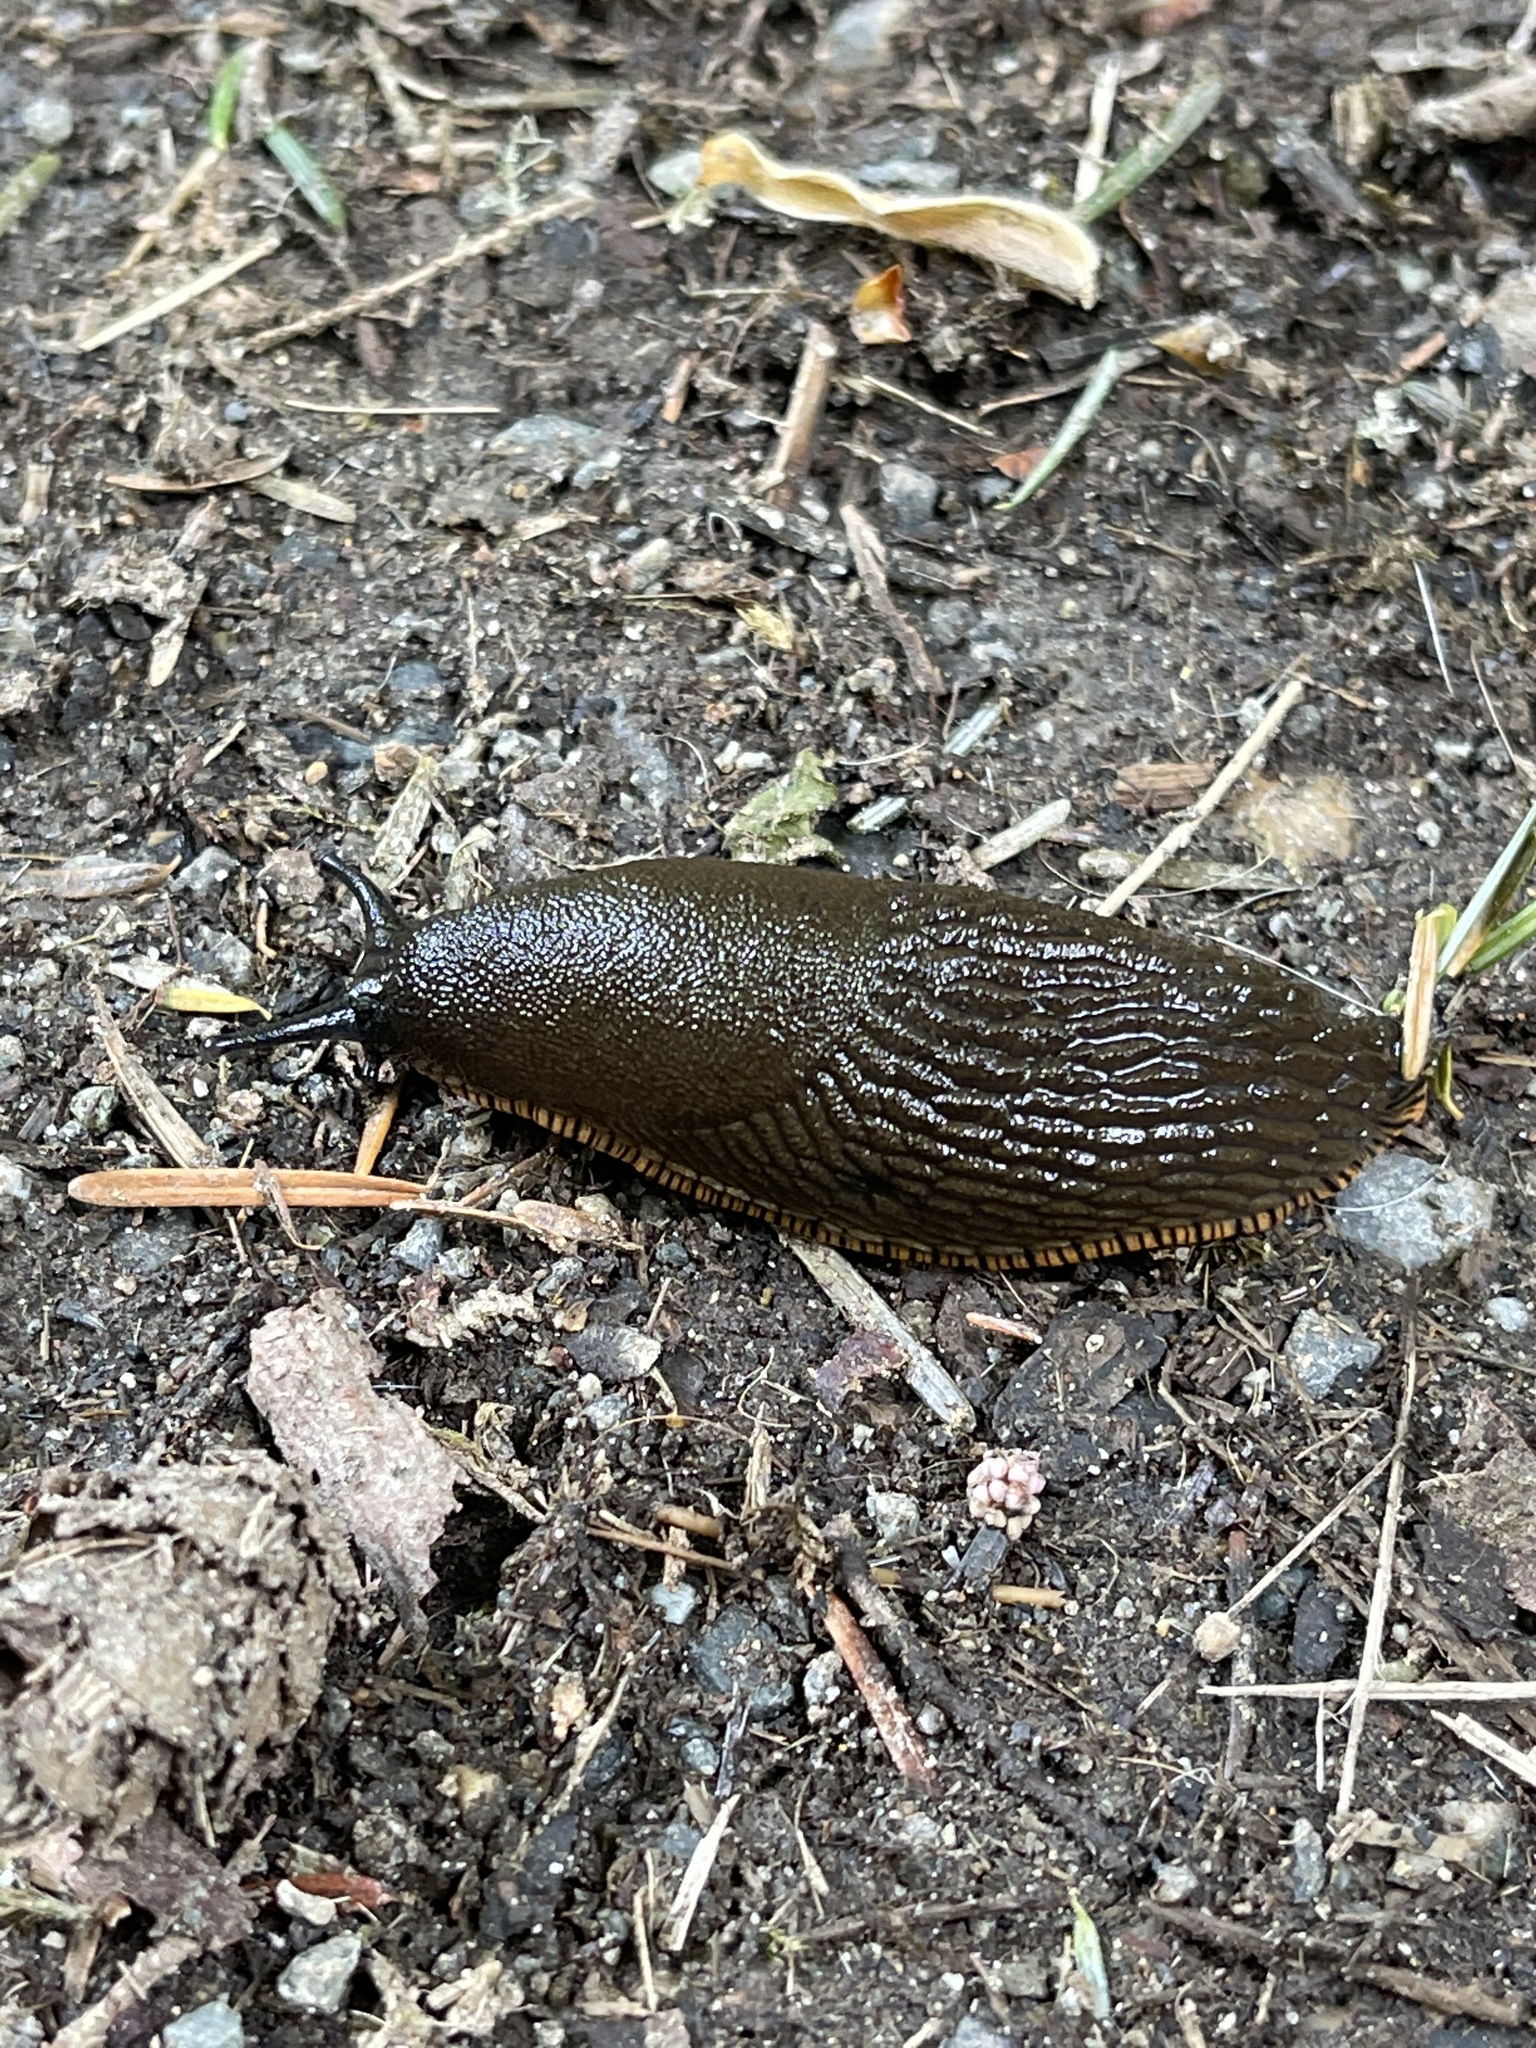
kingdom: Animalia
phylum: Mollusca
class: Gastropoda
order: Stylommatophora
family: Arionidae
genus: Arion
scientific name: Arion rufus
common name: Chocolate arion
